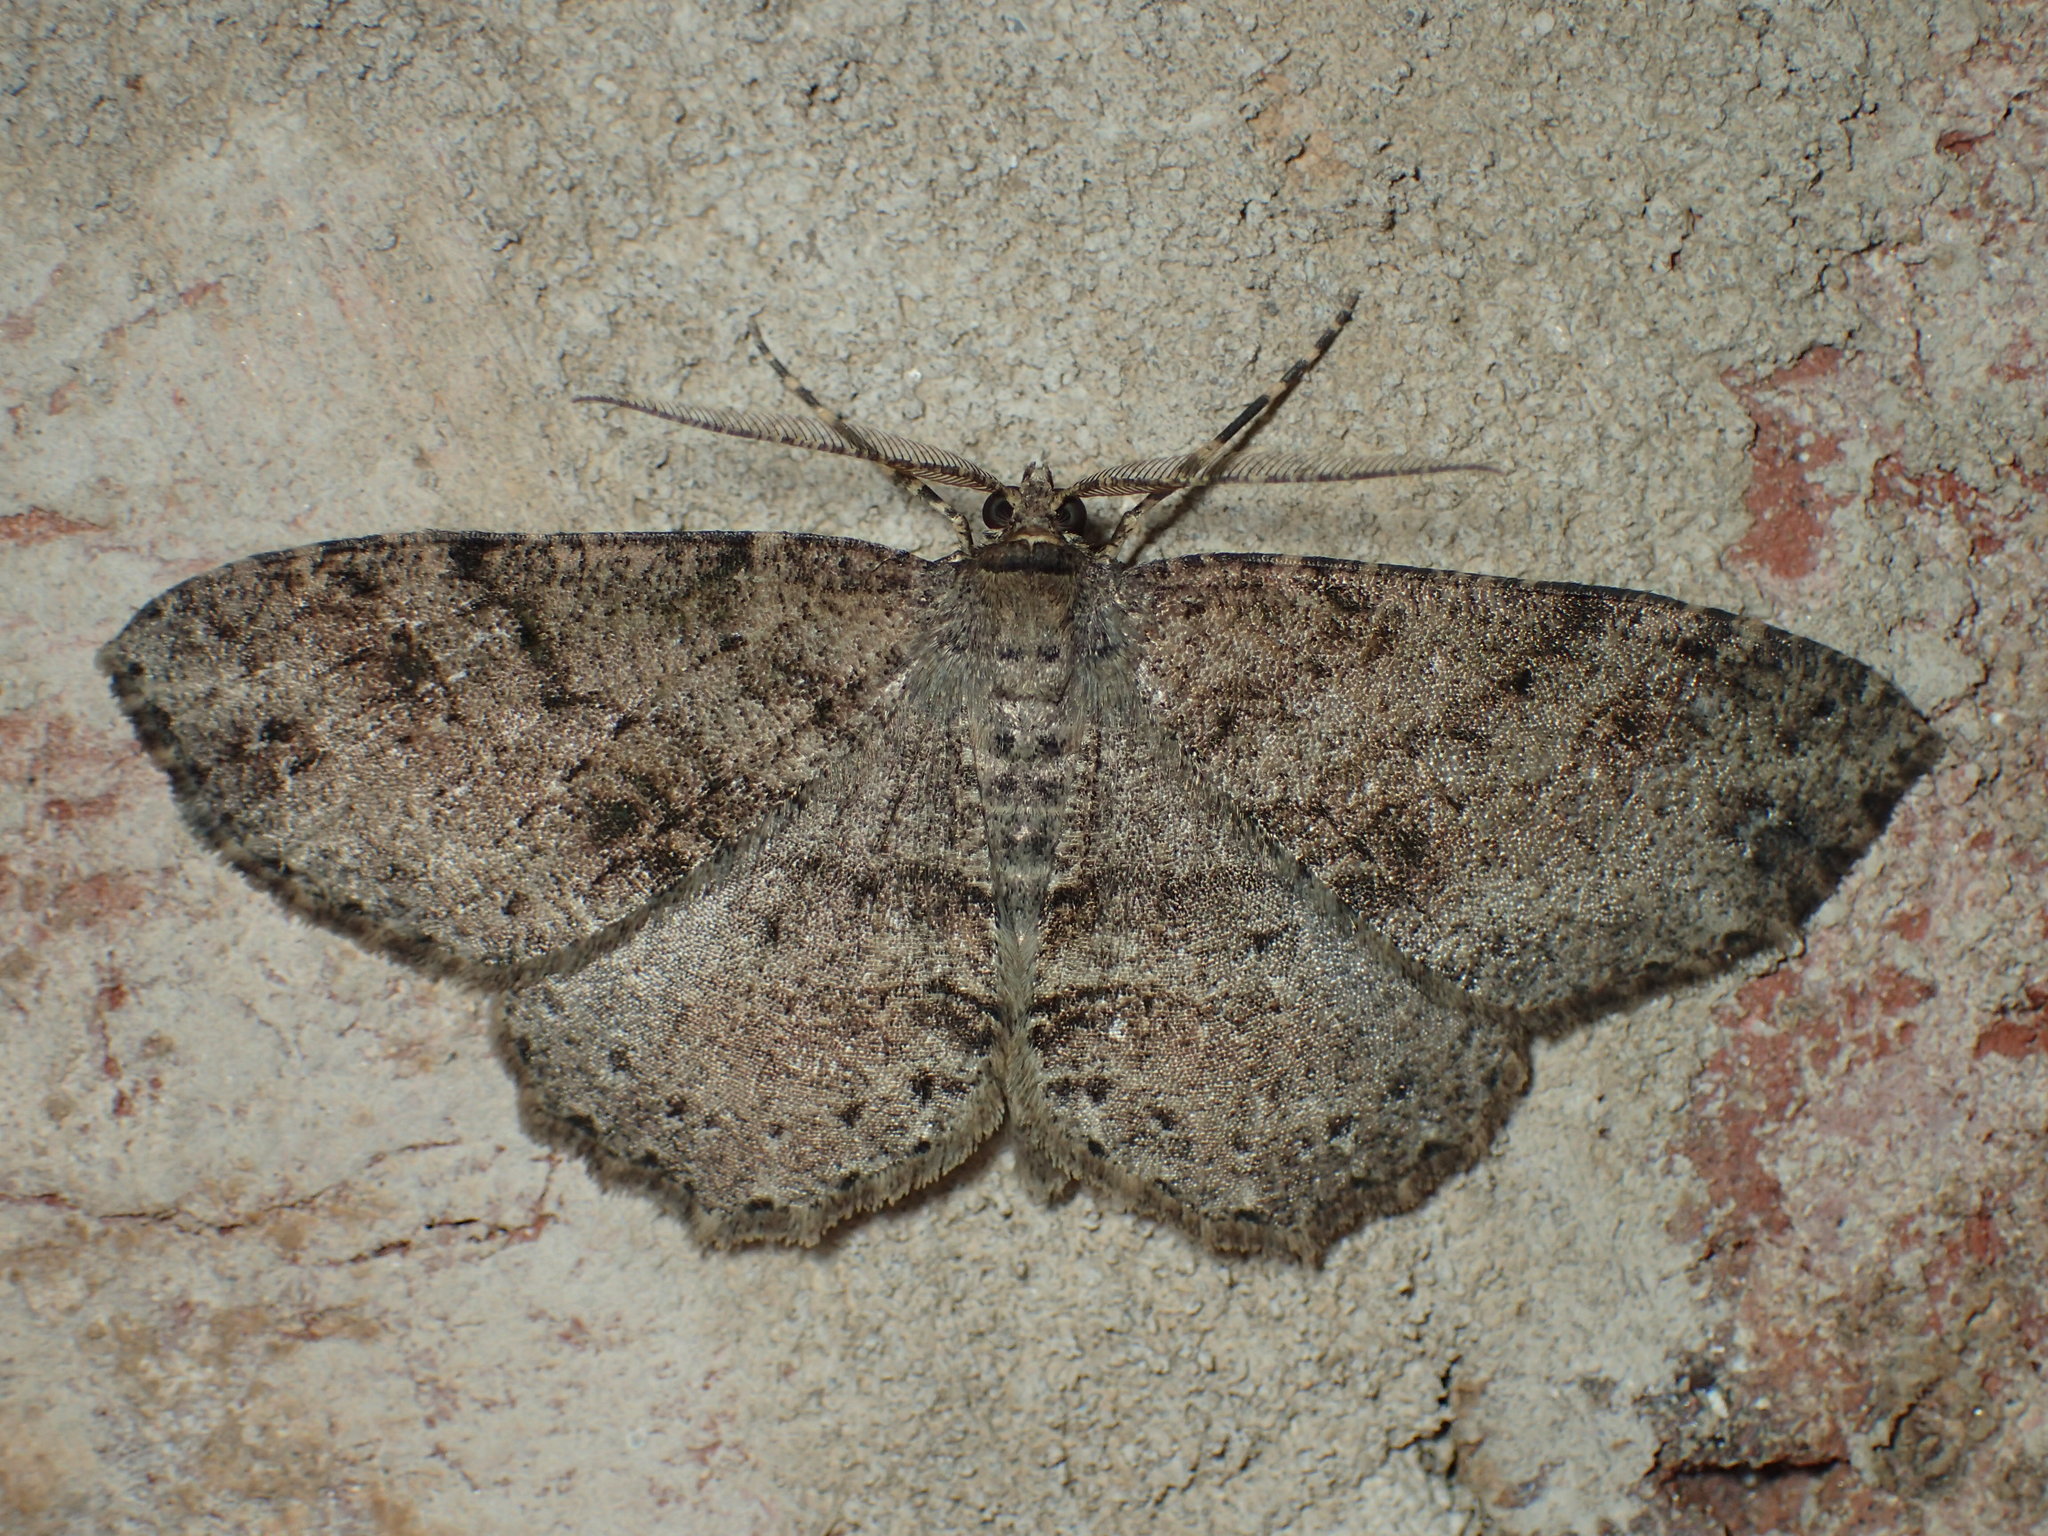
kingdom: Animalia
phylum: Arthropoda
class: Insecta
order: Lepidoptera
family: Geometridae
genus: Melanolophia
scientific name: Melanolophia canadaria
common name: Canadian melanolophia
